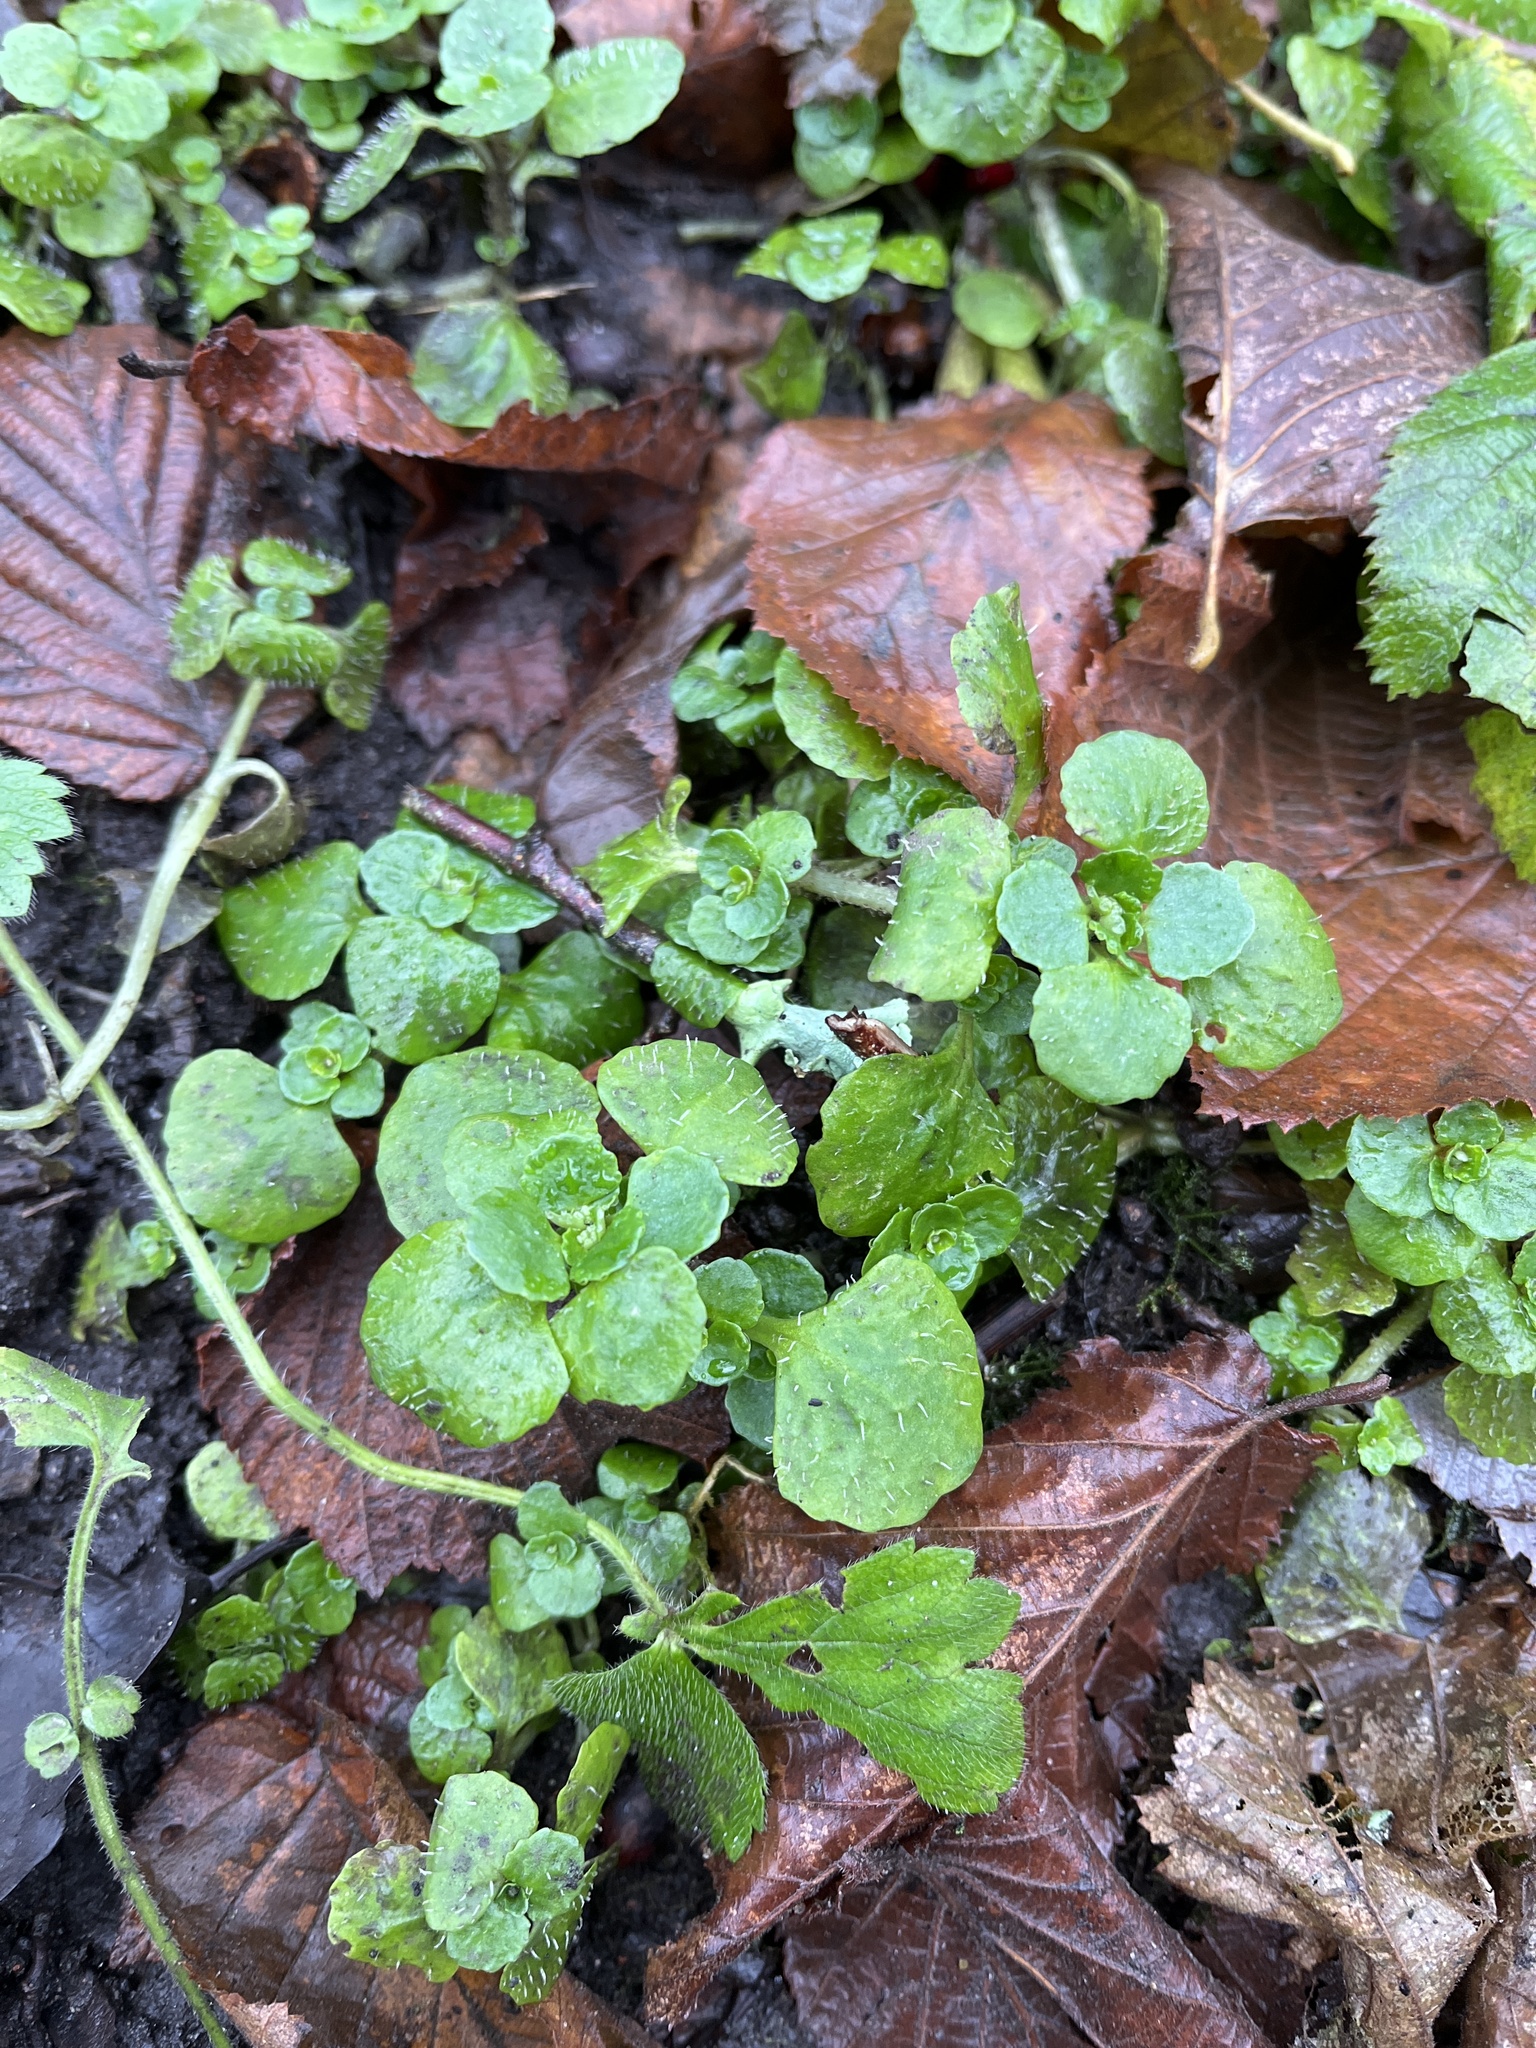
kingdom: Plantae
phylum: Tracheophyta
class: Magnoliopsida
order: Saxifragales
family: Saxifragaceae
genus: Chrysosplenium
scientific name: Chrysosplenium oppositifolium
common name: Opposite-leaved golden-saxifrage
